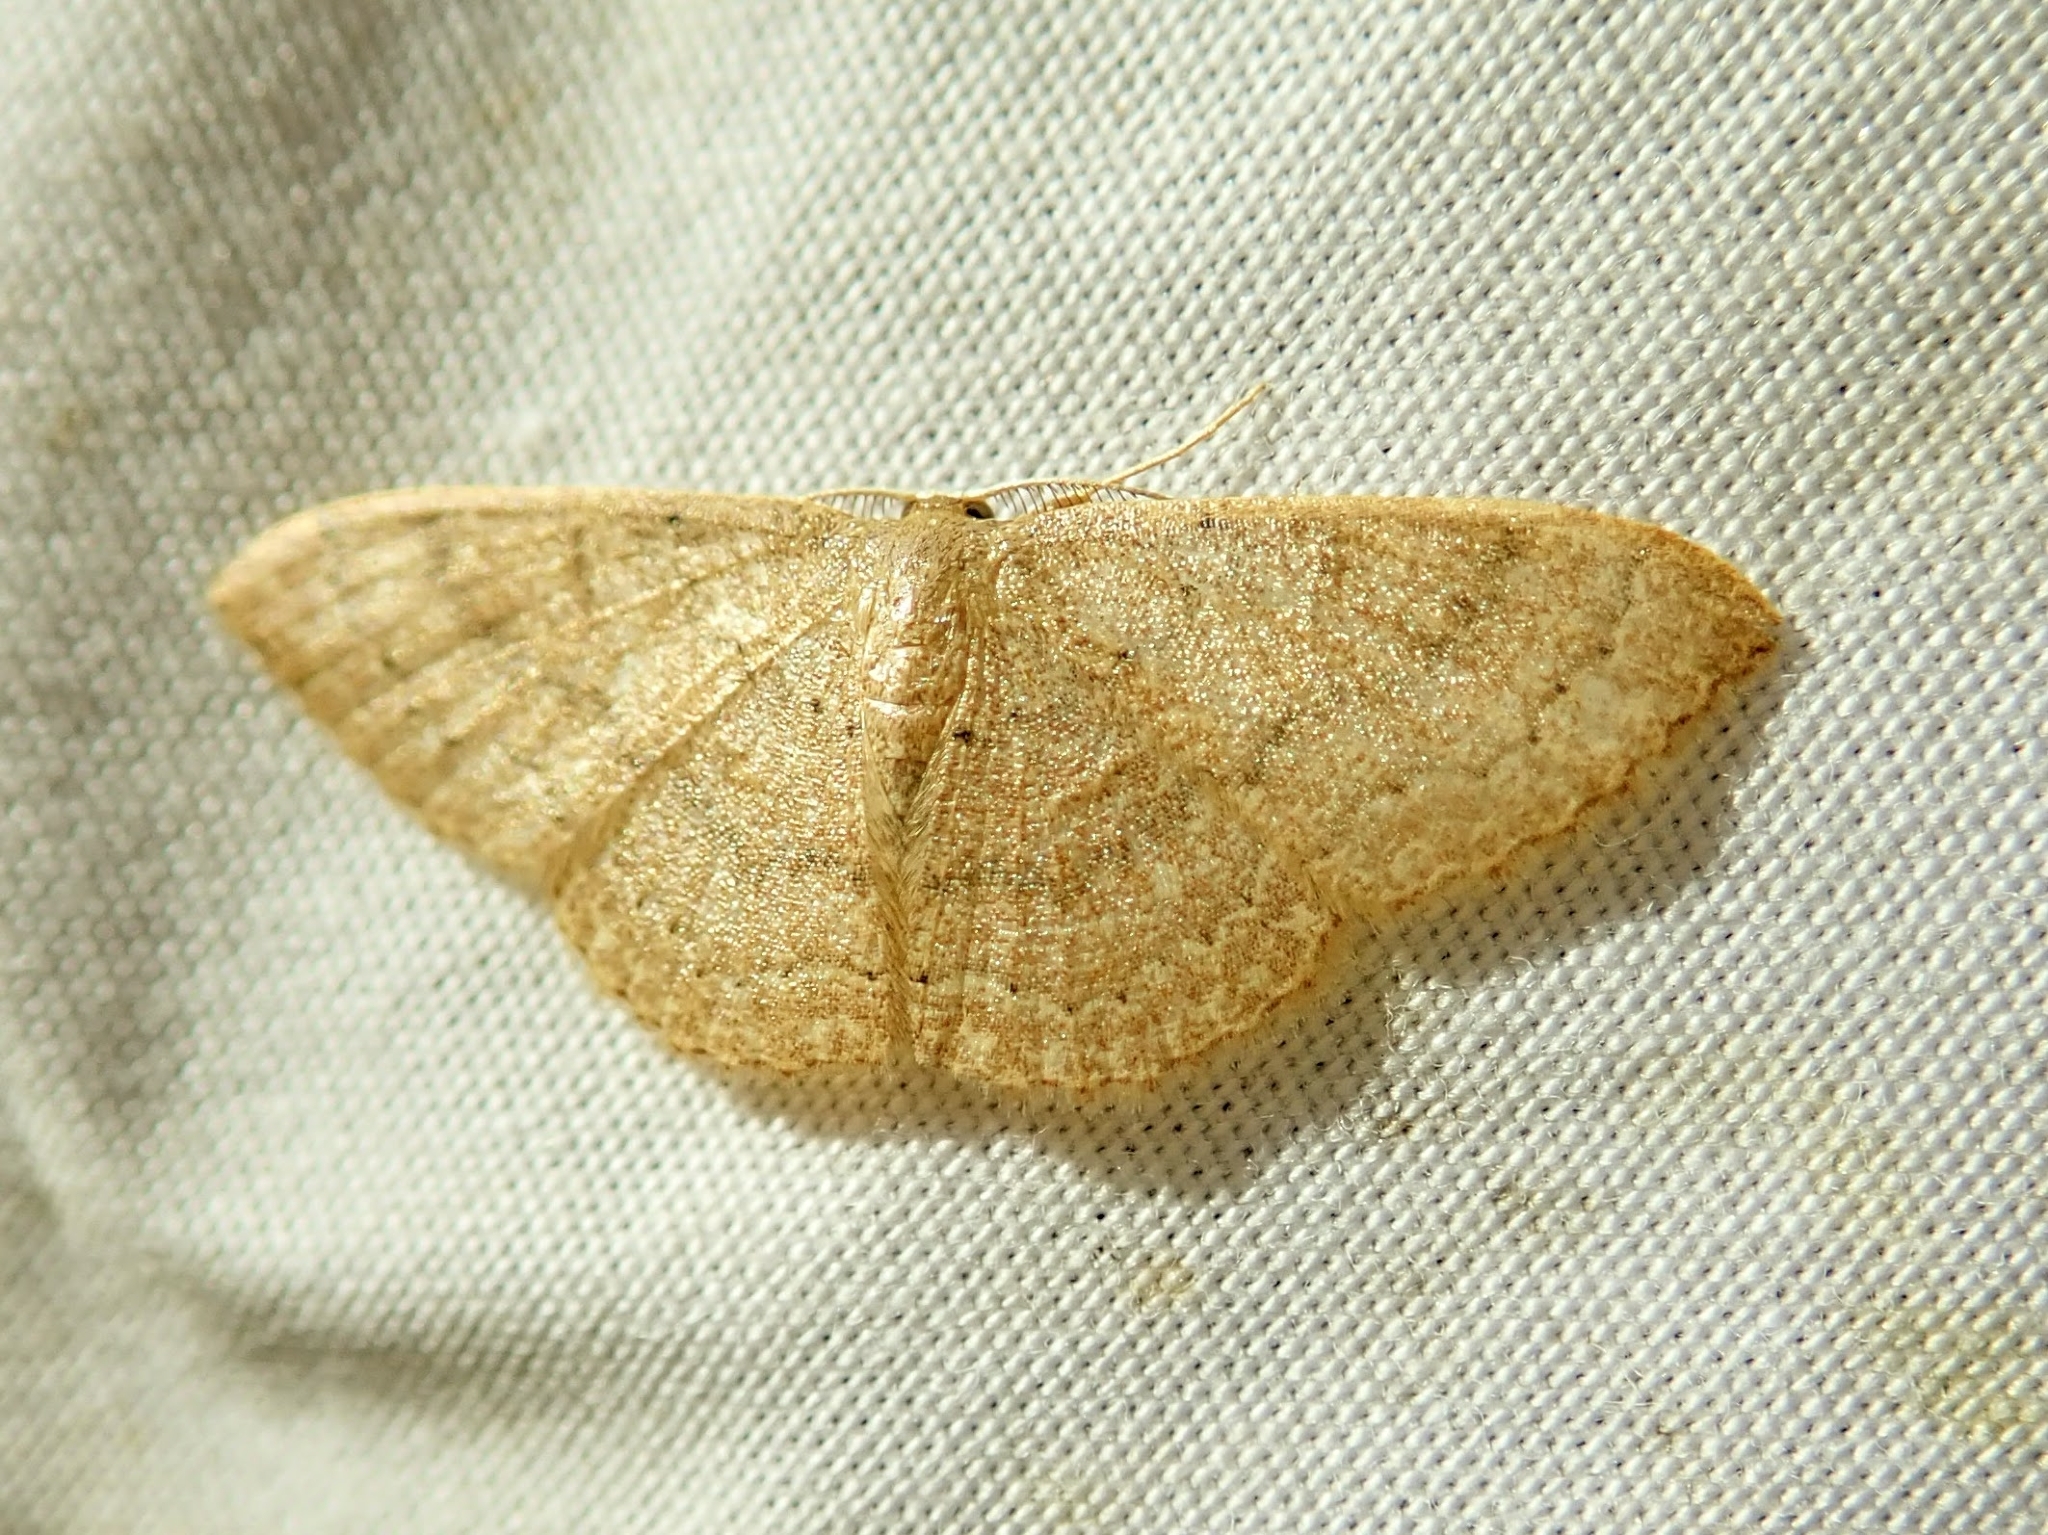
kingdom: Animalia
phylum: Arthropoda
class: Insecta
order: Lepidoptera
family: Geometridae
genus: Pleuroprucha
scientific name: Pleuroprucha insulsaria
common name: Common tan wave
